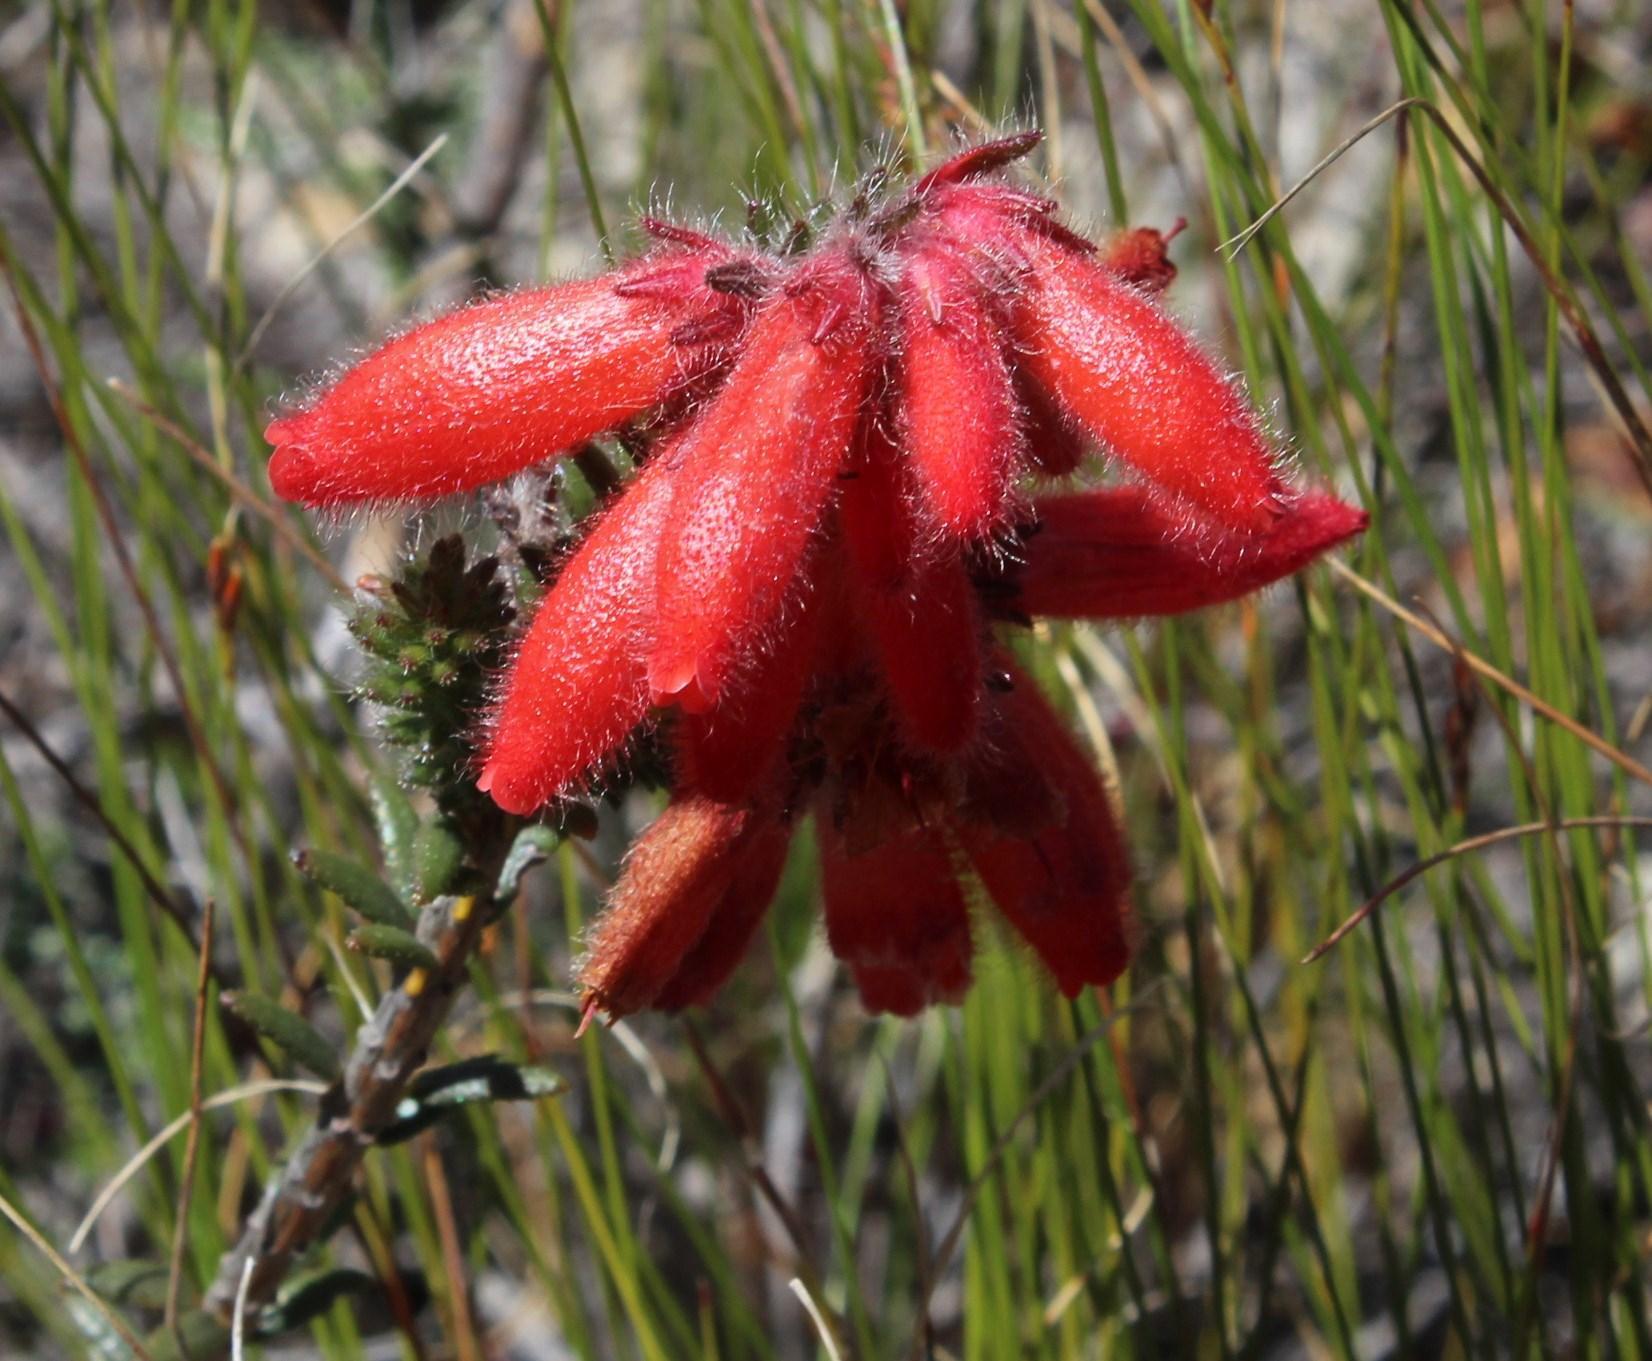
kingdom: Plantae
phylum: Tracheophyta
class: Magnoliopsida
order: Ericales
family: Ericaceae
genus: Erica
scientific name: Erica cerinthoides
